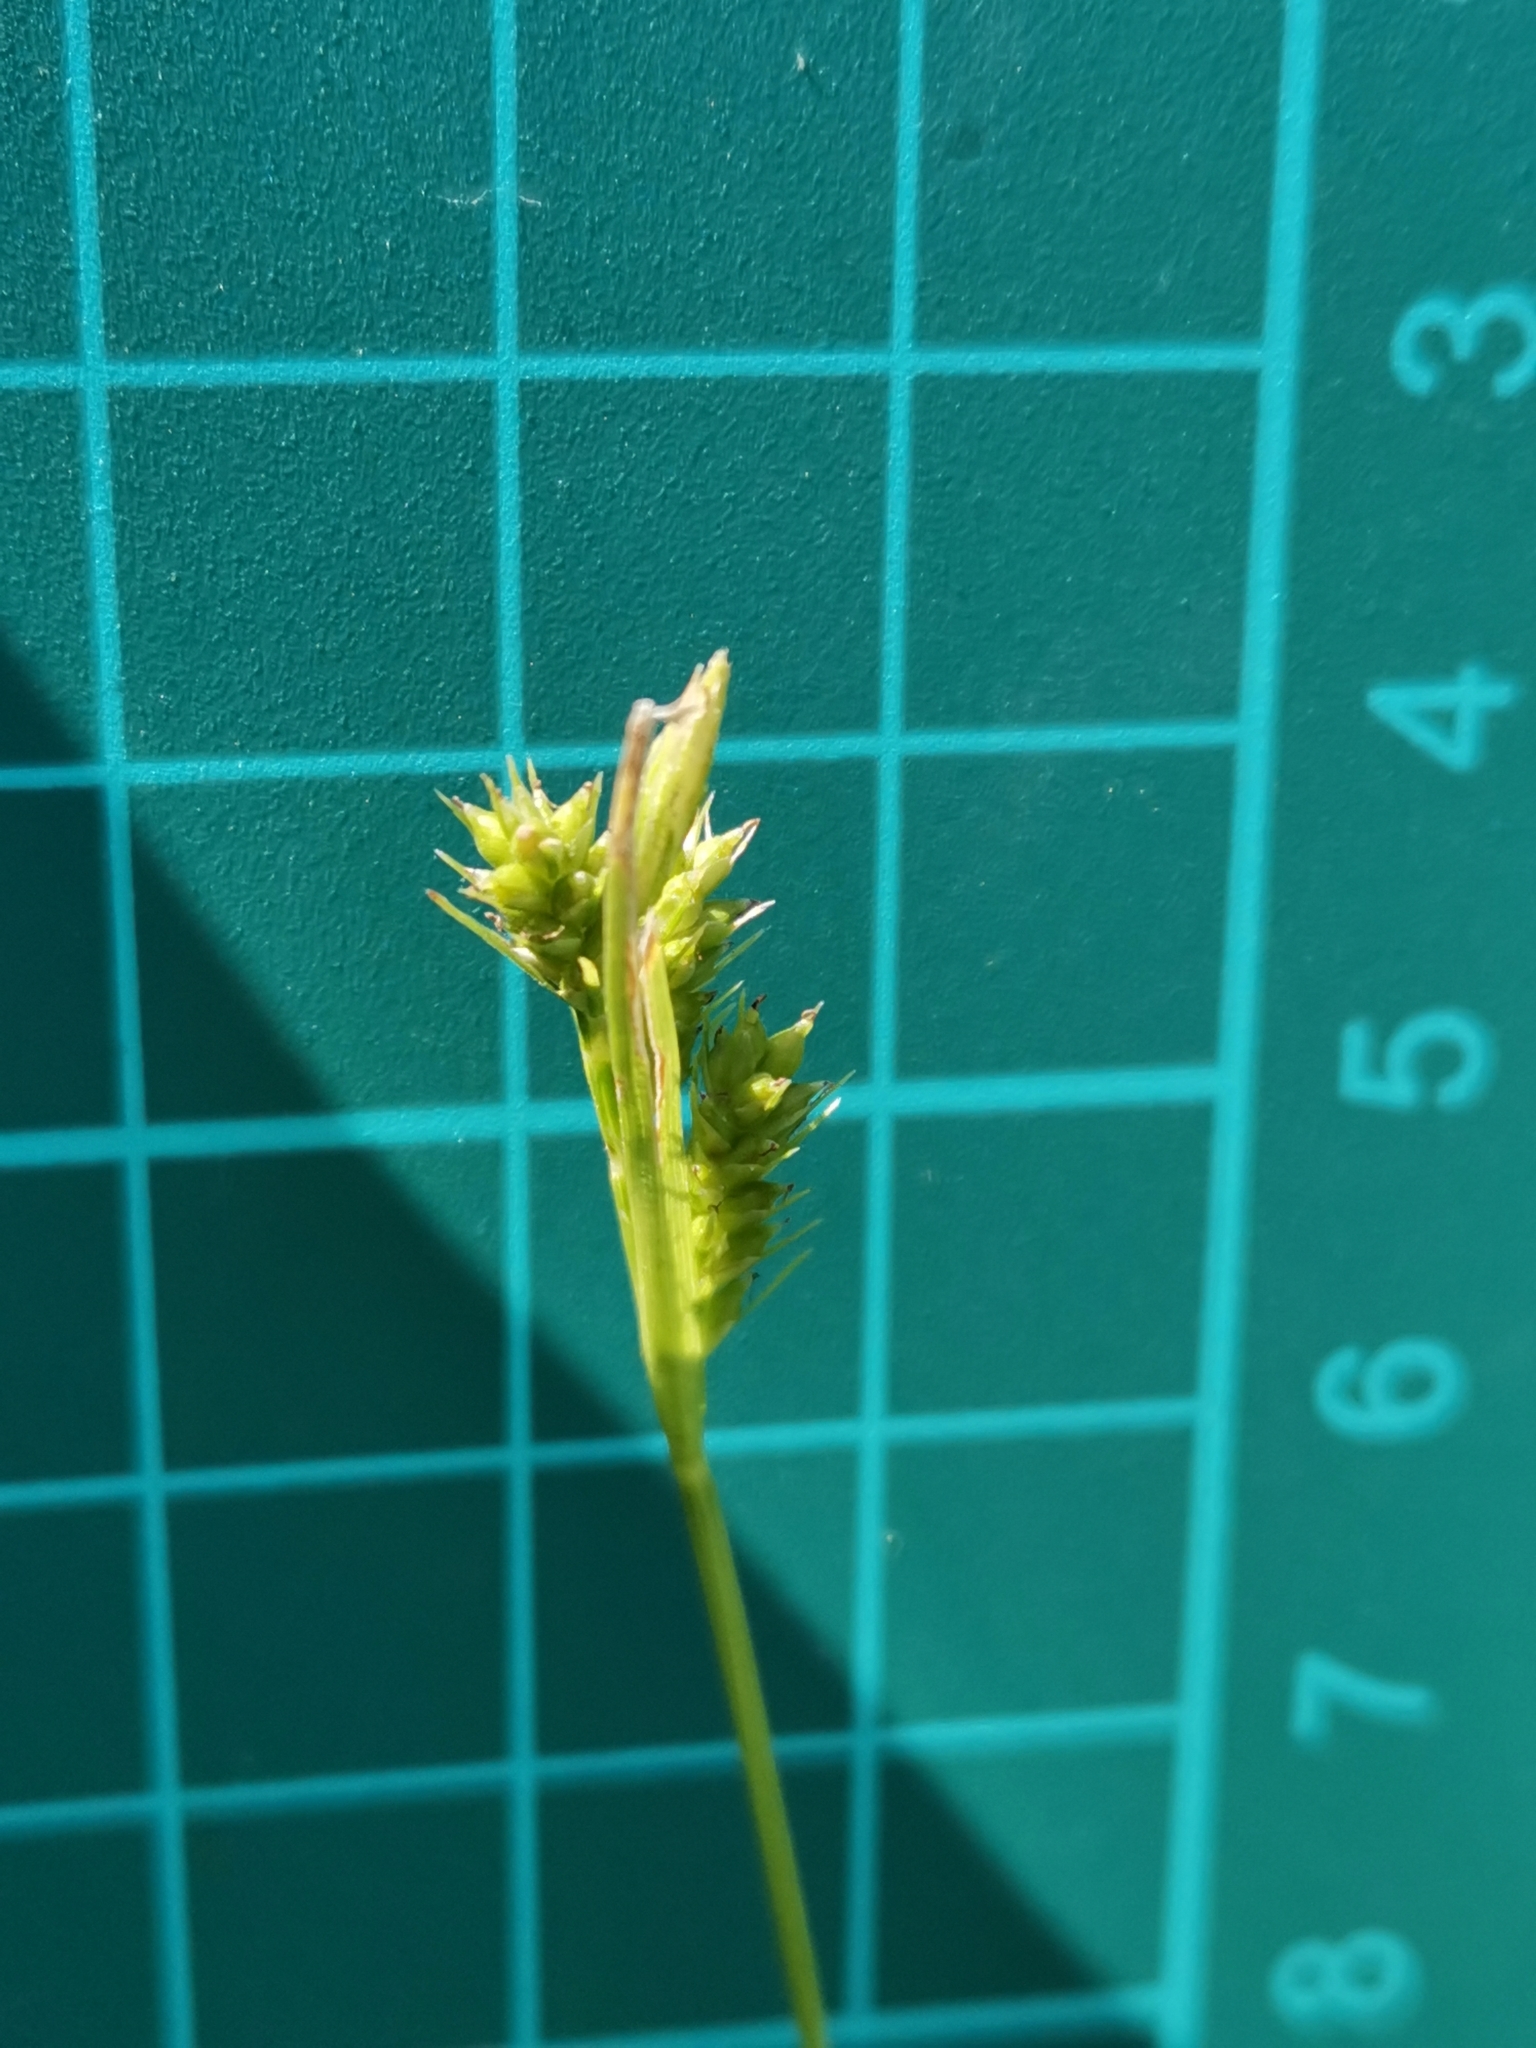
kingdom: Plantae
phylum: Tracheophyta
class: Liliopsida
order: Poales
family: Cyperaceae
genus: Carex
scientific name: Carex leucochlora
